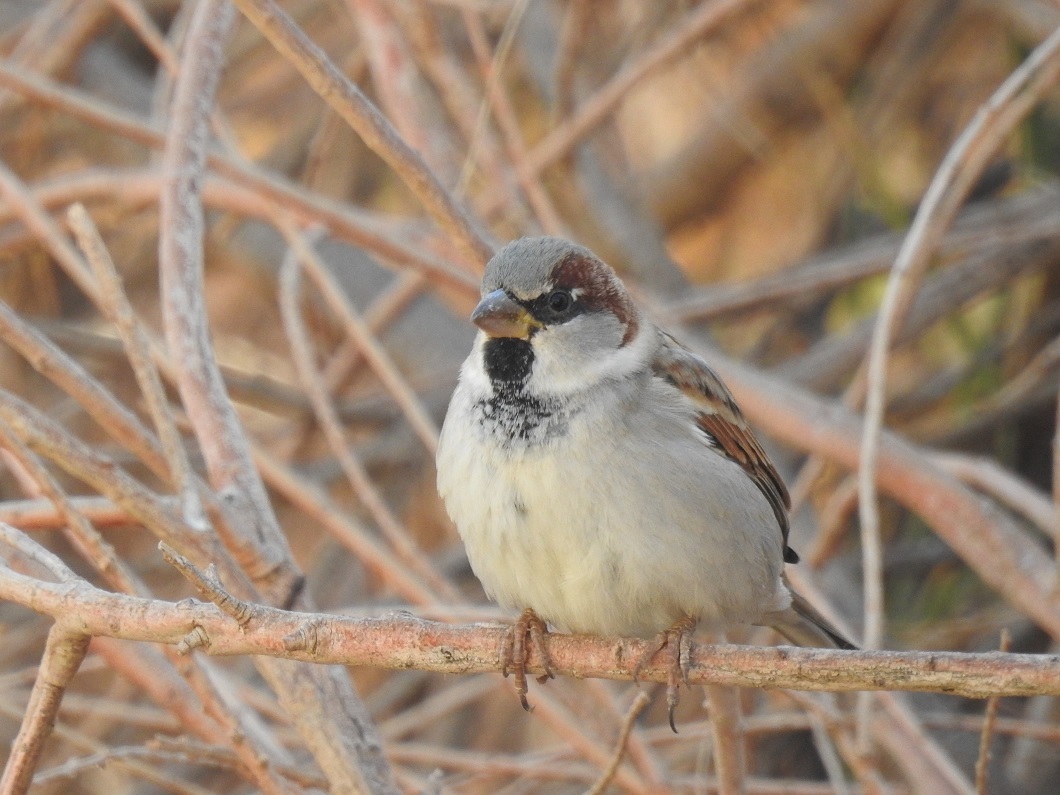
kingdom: Animalia
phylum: Chordata
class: Aves
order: Passeriformes
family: Passeridae
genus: Passer
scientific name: Passer domesticus
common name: House sparrow
